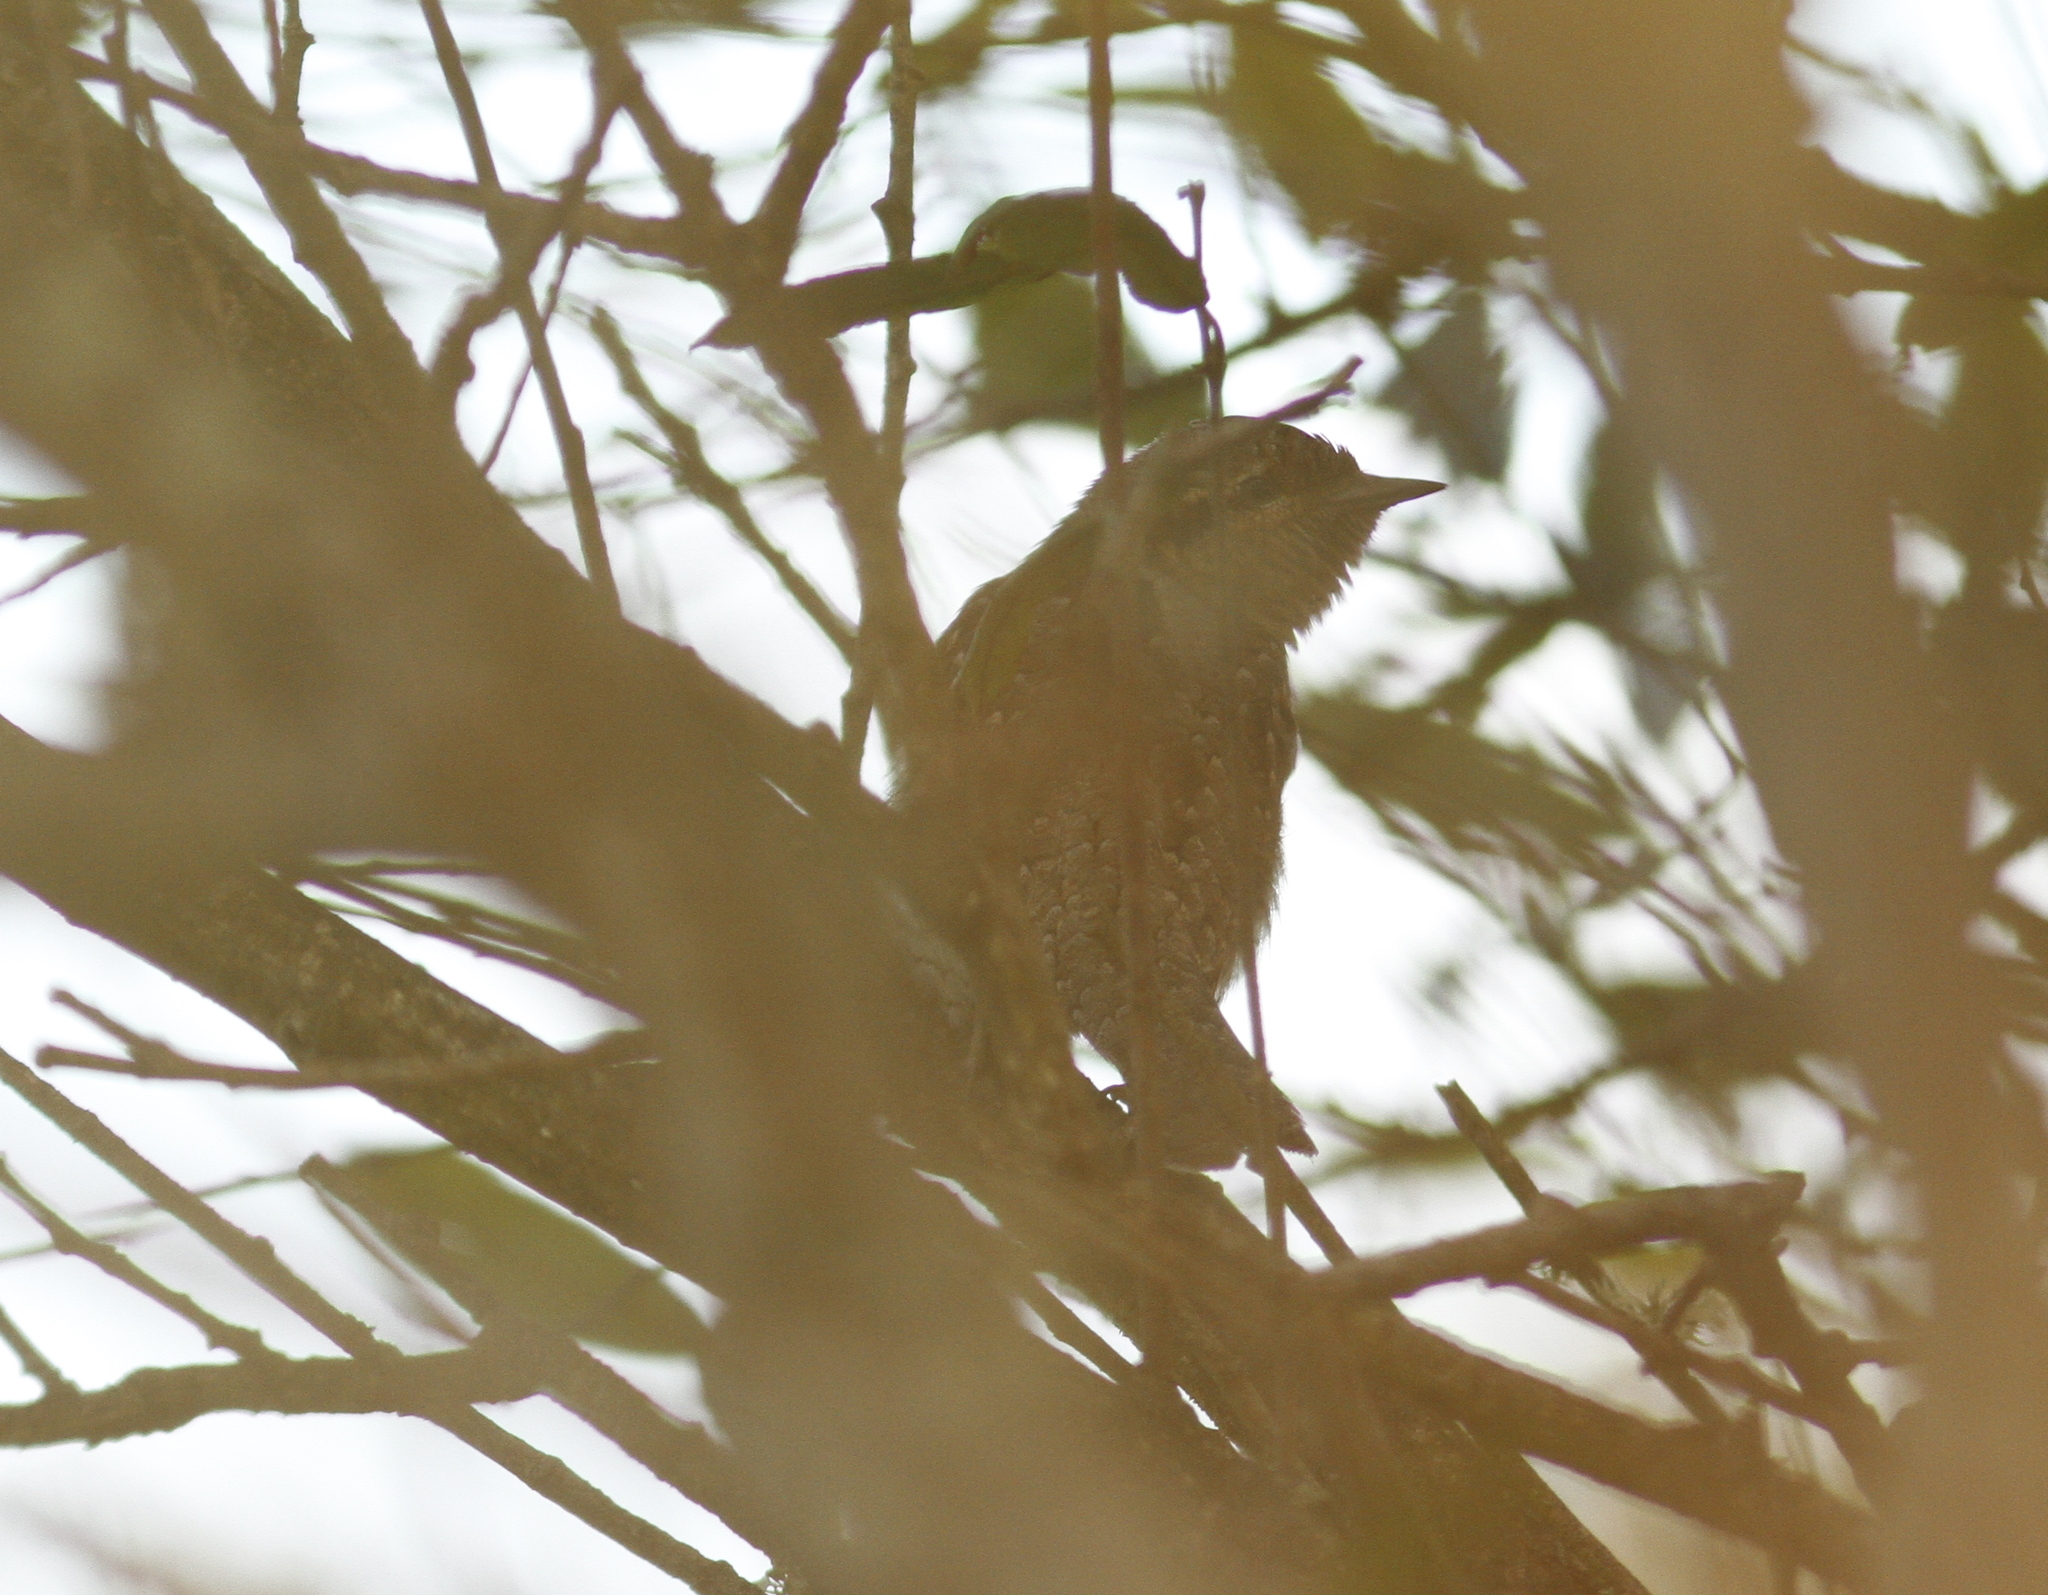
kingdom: Animalia
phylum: Chordata
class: Aves
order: Piciformes
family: Picidae
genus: Jynx
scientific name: Jynx torquilla
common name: Eurasian wryneck
